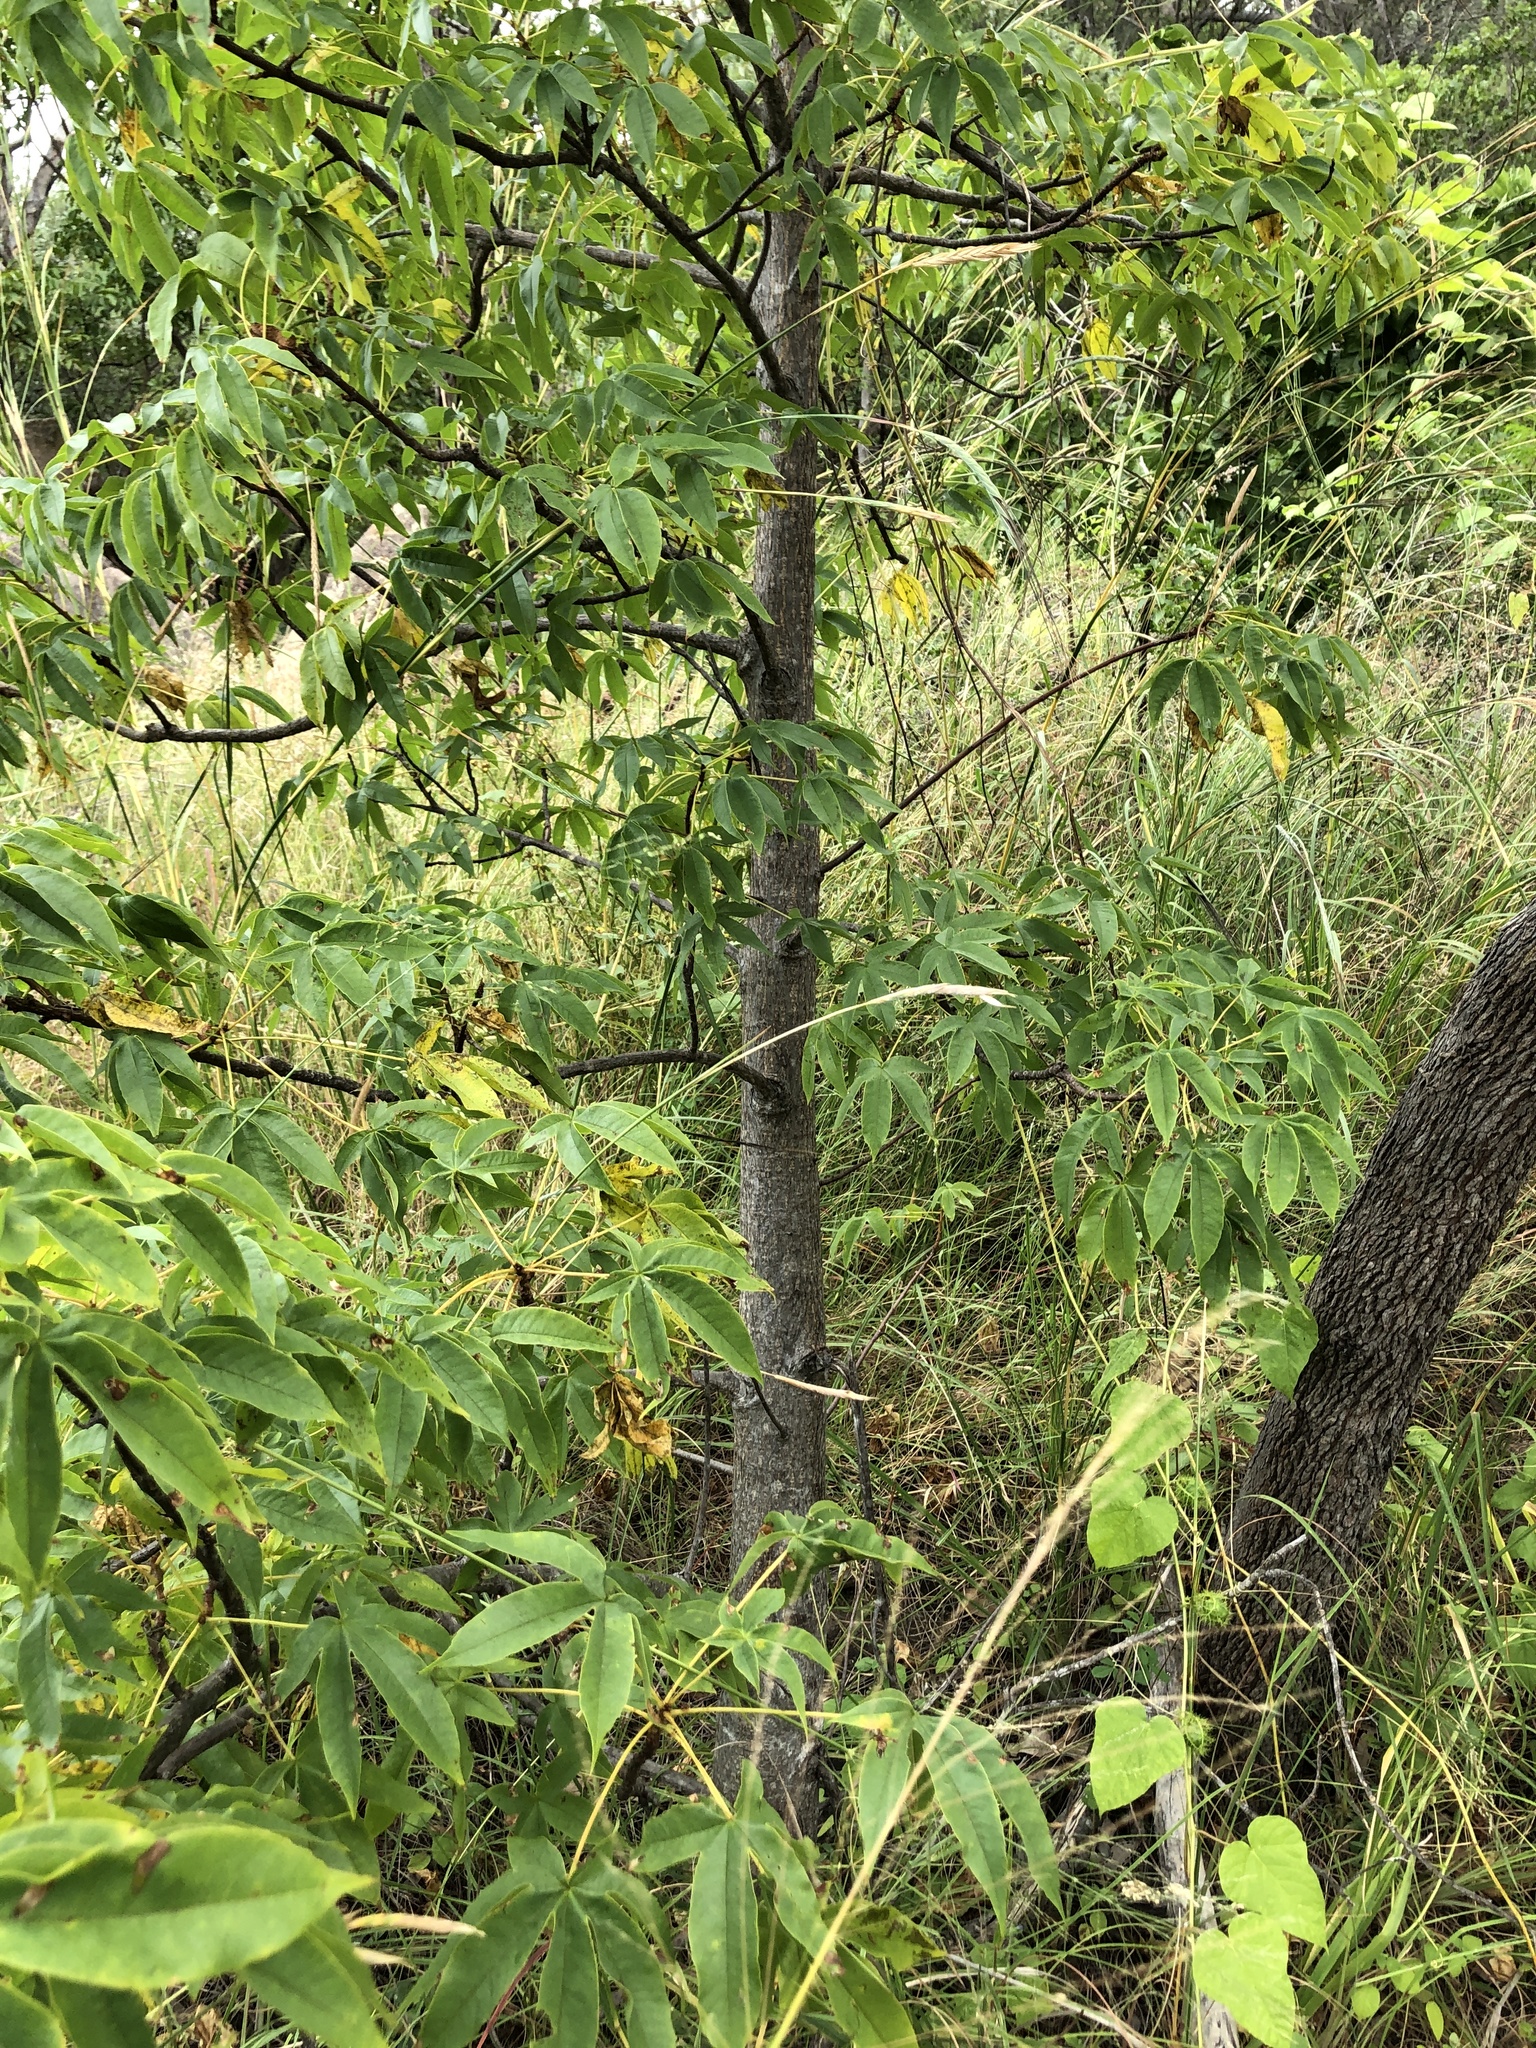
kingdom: Plantae
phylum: Tracheophyta
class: Magnoliopsida
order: Malvales
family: Cochlospermaceae
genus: Cochlospermum
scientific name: Cochlospermum gillivraei
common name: Cottontree
